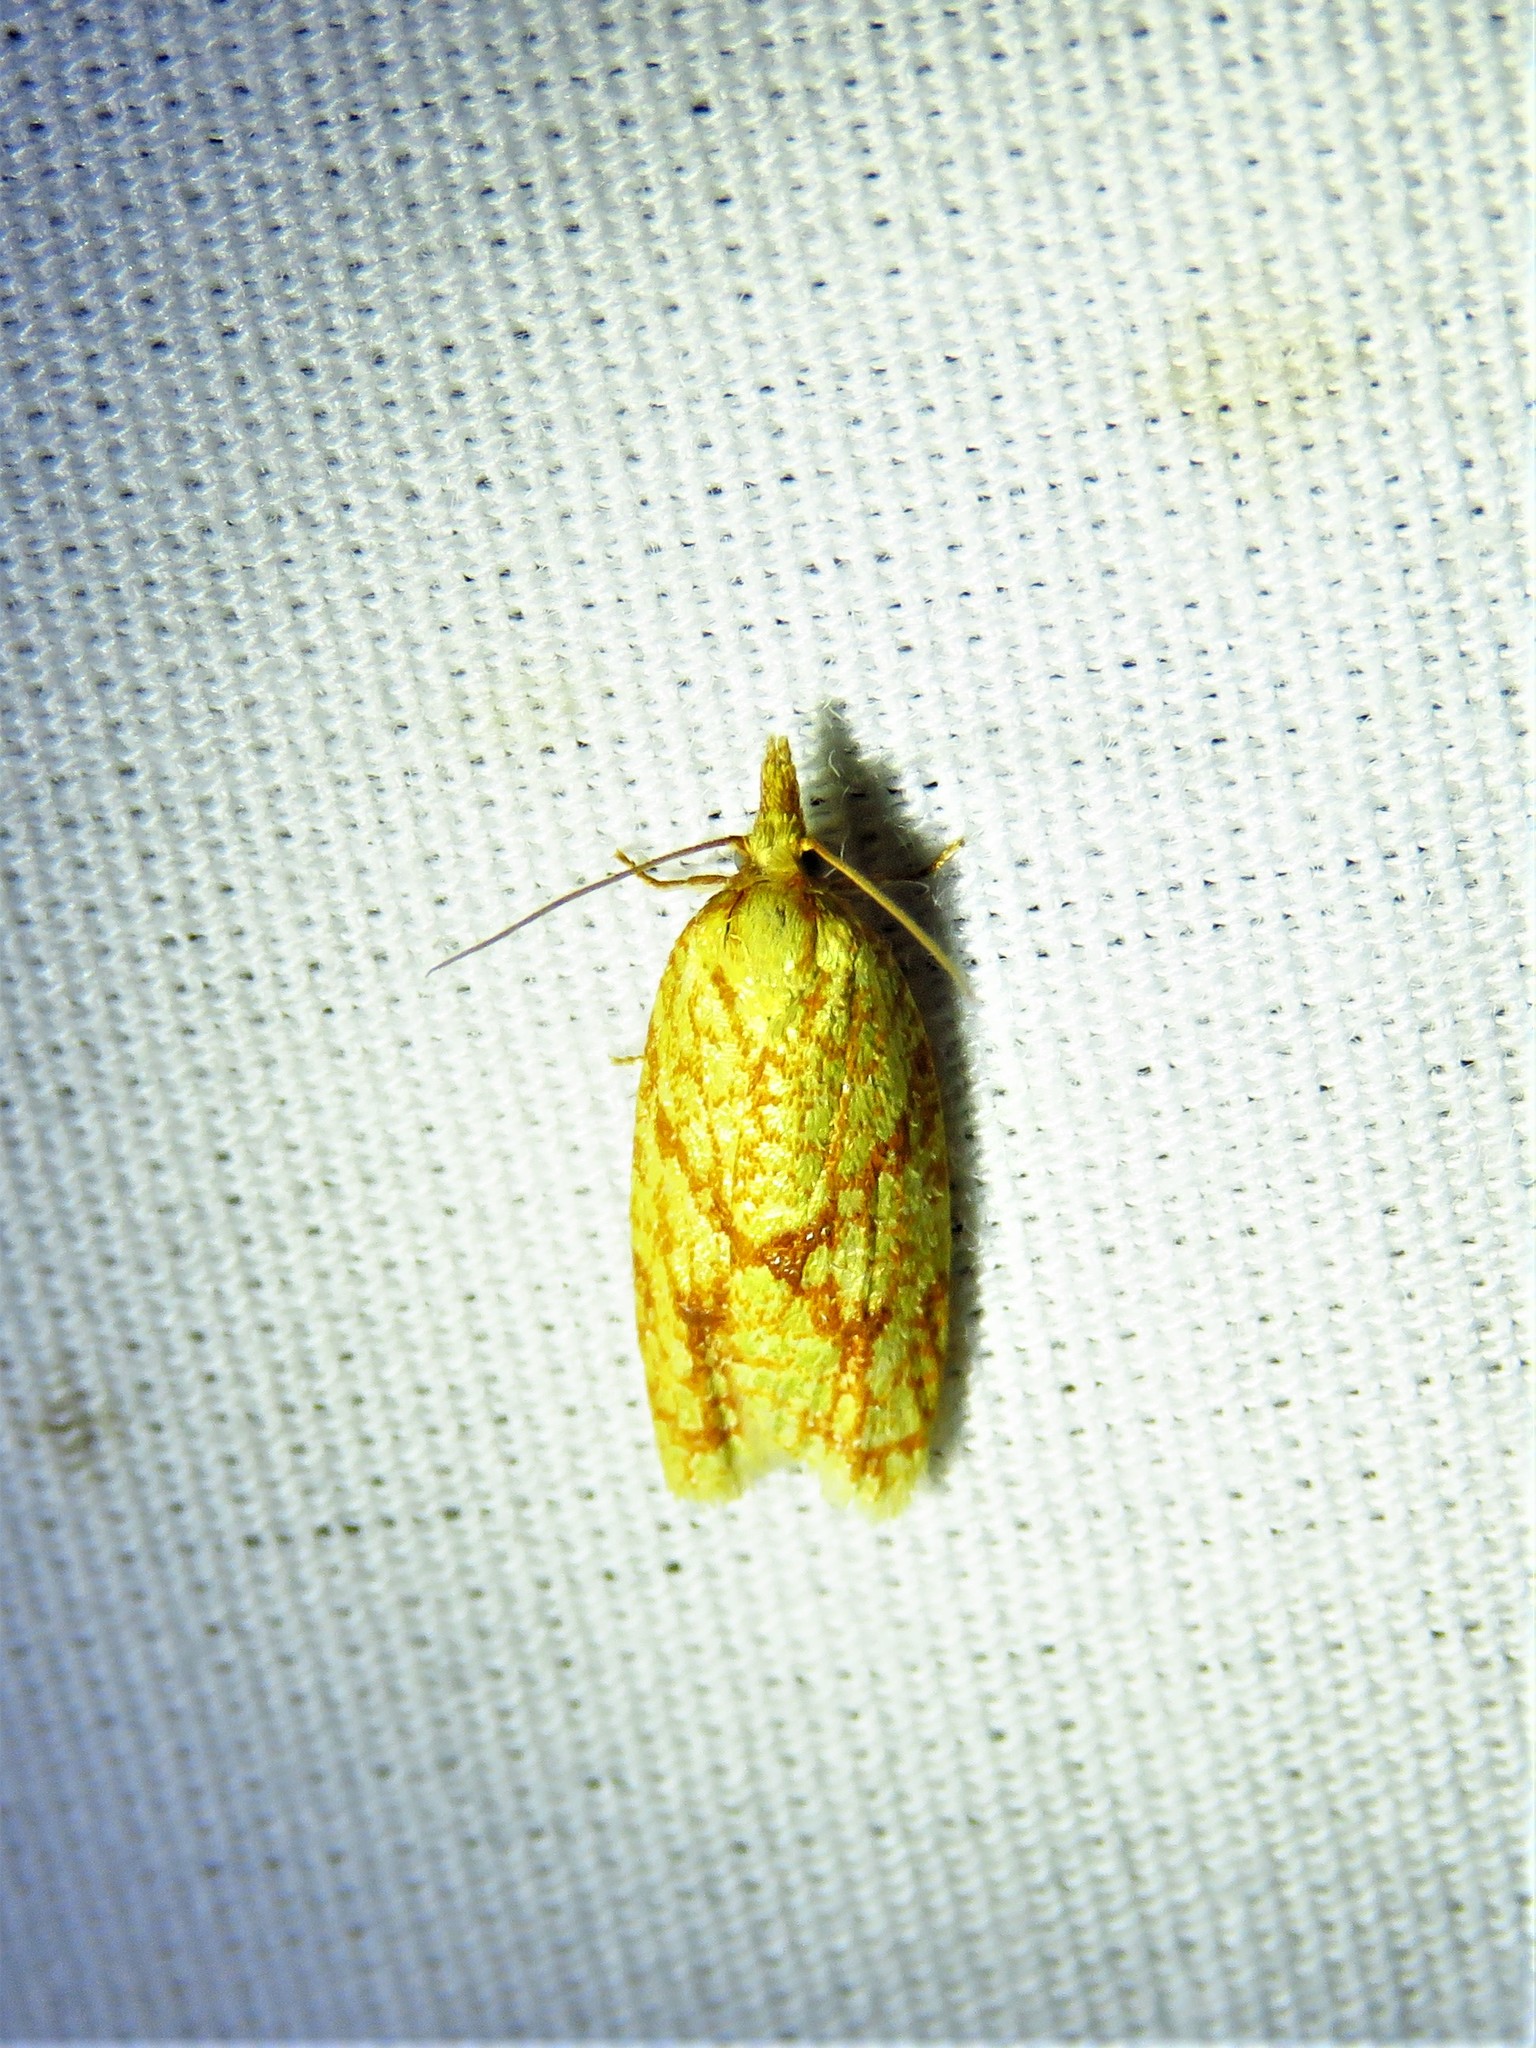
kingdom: Animalia
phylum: Arthropoda
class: Insecta
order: Lepidoptera
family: Tortricidae
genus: Sparganothis
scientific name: Sparganothis sulfureana
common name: Sparganothis fruitworm moth
